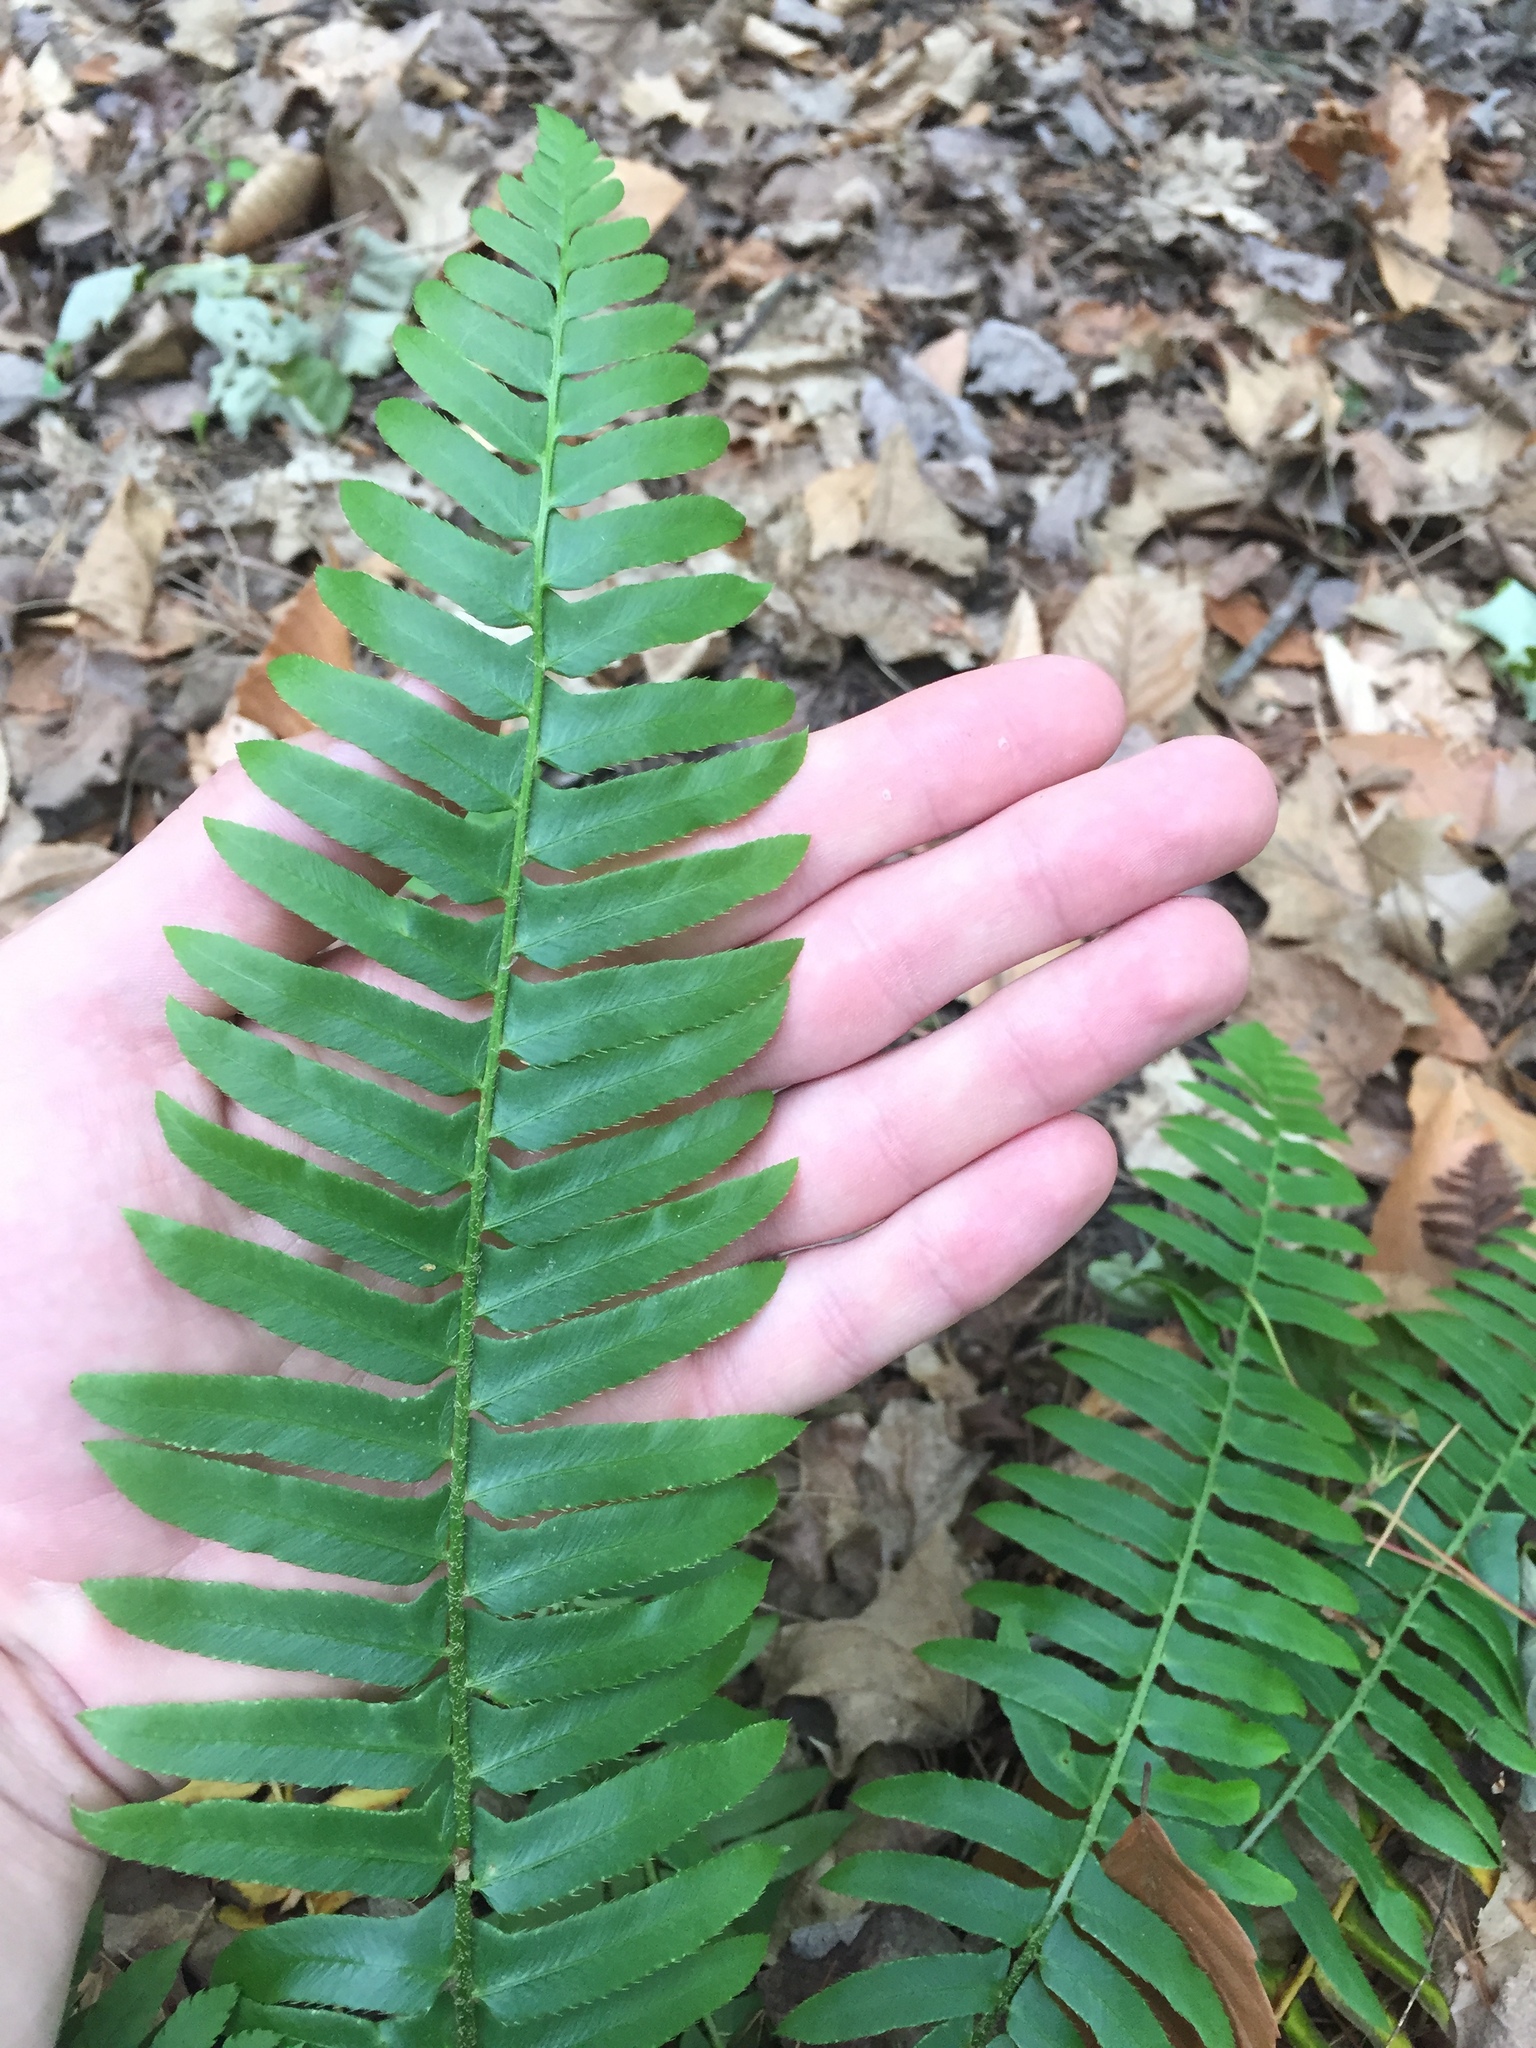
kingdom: Plantae
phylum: Tracheophyta
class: Polypodiopsida
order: Polypodiales
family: Dryopteridaceae
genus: Polystichum
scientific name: Polystichum acrostichoides
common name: Christmas fern
